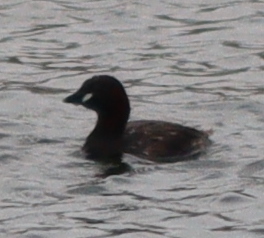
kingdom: Animalia
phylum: Chordata
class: Aves
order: Podicipediformes
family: Podicipedidae
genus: Tachybaptus
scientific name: Tachybaptus ruficollis
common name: Little grebe
